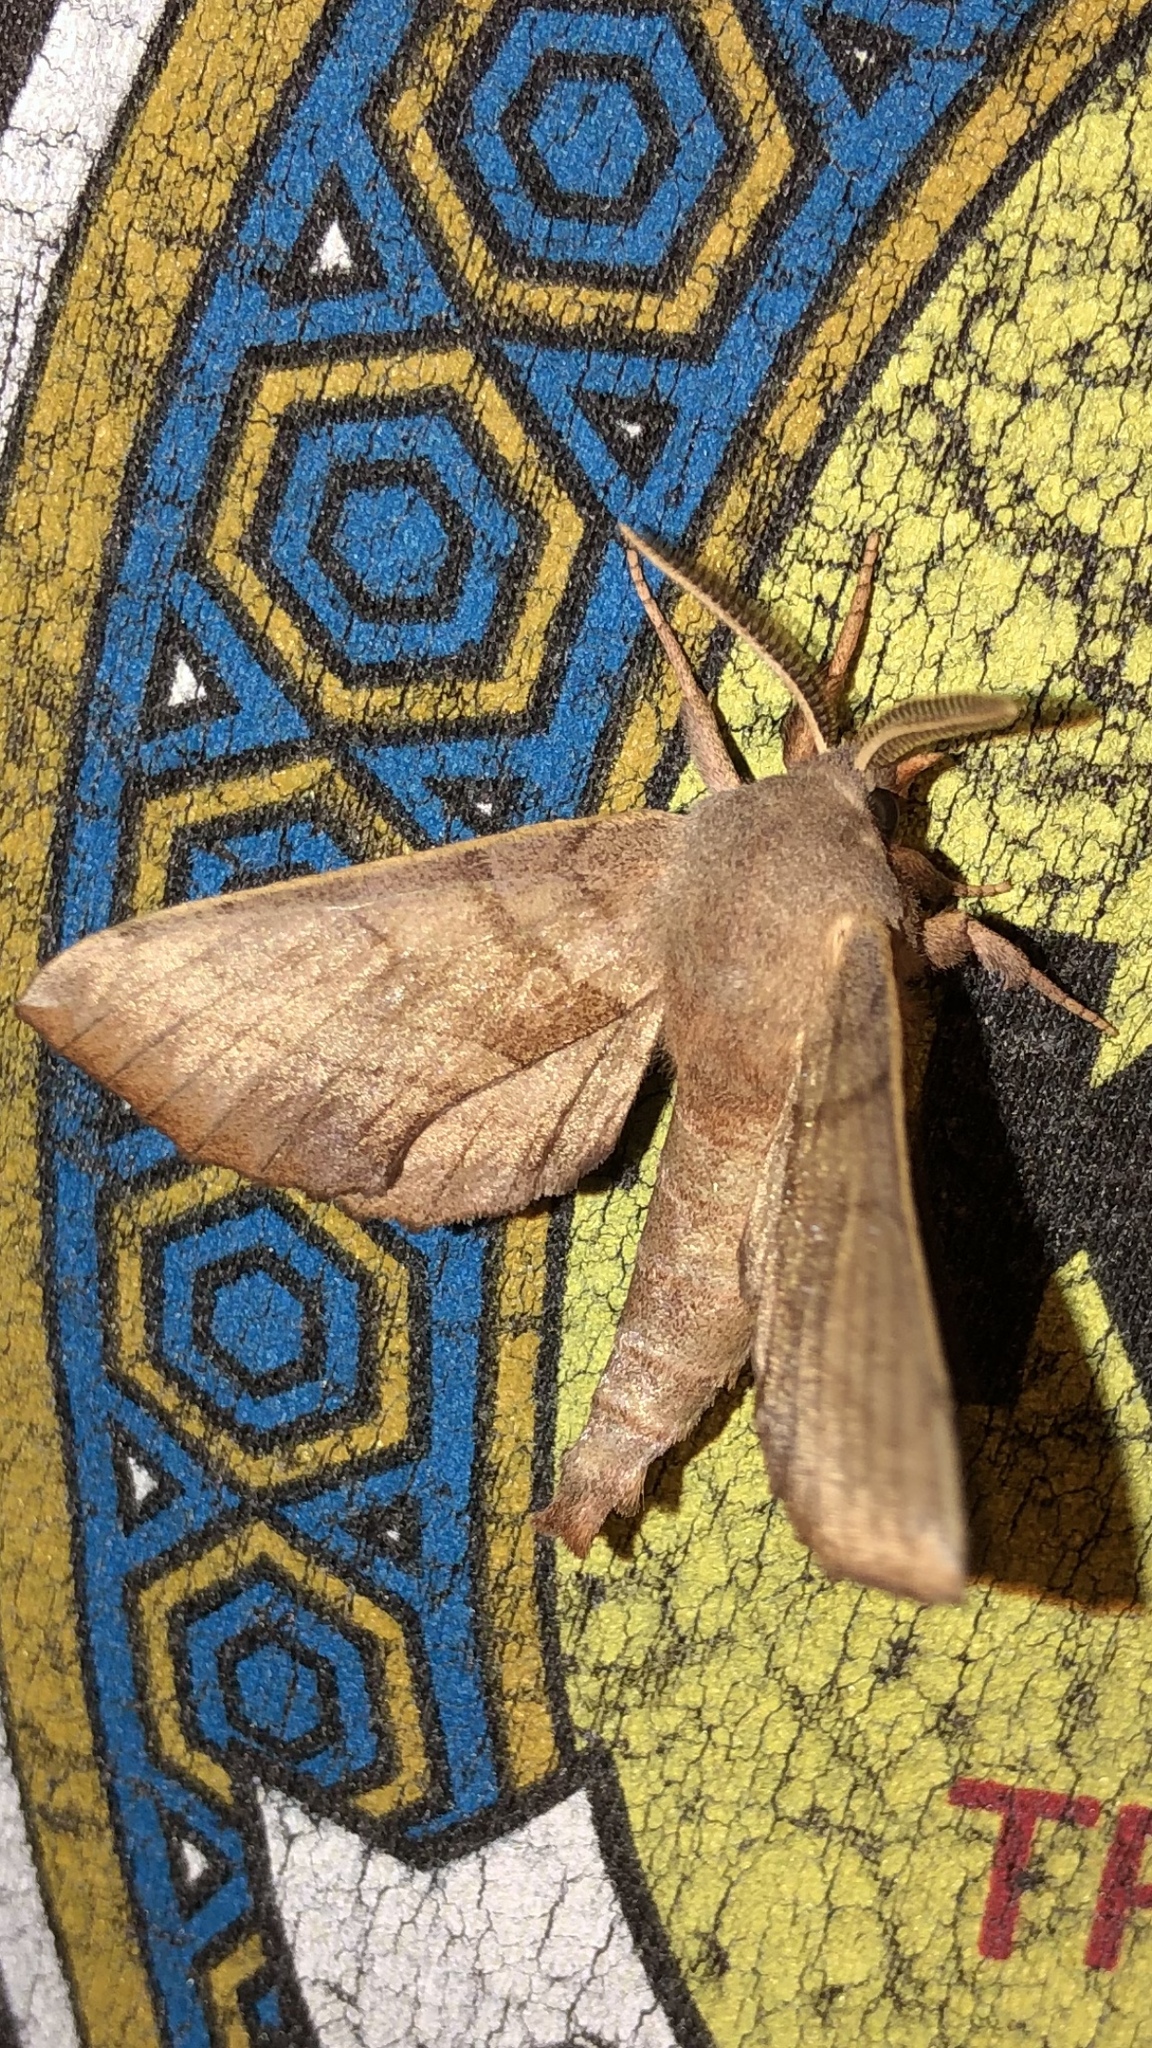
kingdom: Animalia
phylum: Arthropoda
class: Insecta
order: Lepidoptera
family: Sphingidae
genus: Amorpha
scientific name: Amorpha juglandis
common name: Walnut sphinx
